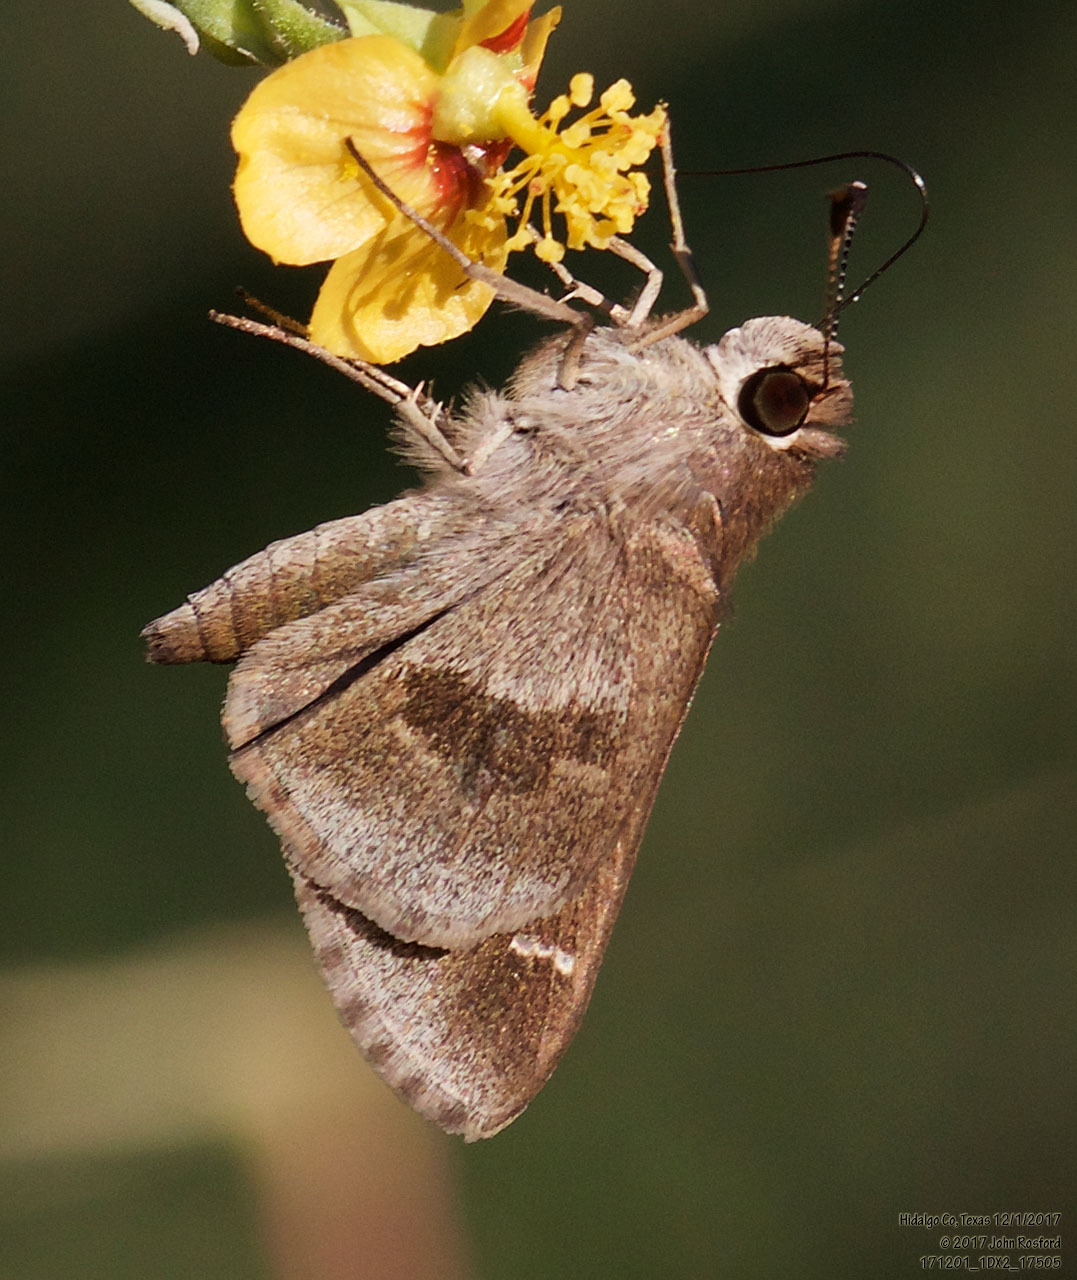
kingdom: Animalia
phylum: Arthropoda
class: Insecta
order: Lepidoptera
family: Hesperiidae
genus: Lerodea
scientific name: Lerodea arabus
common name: Violet-clouded skipper
